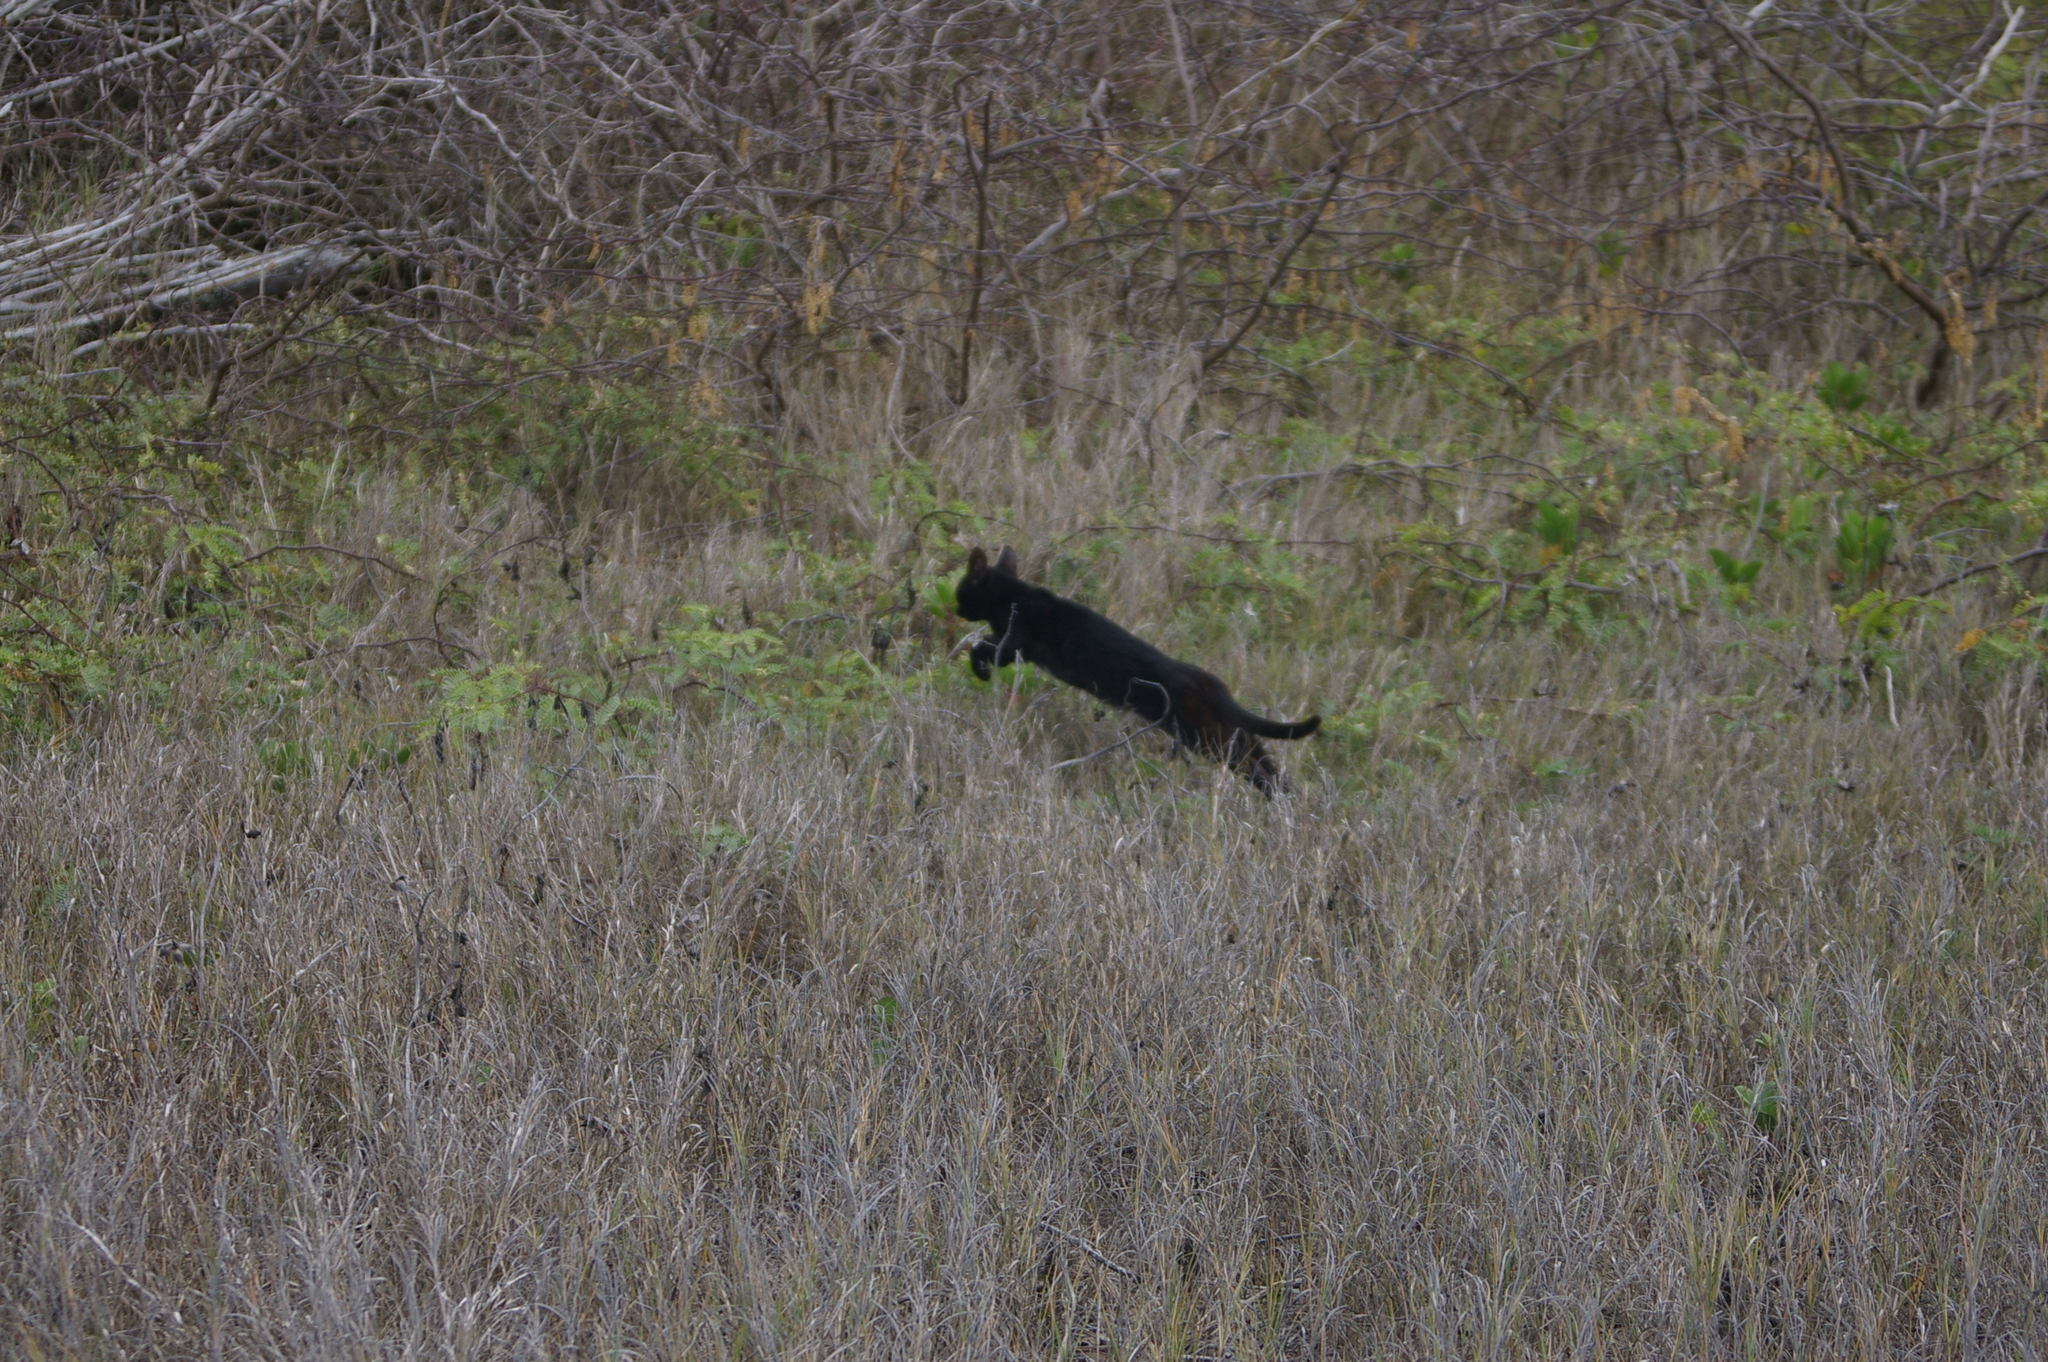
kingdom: Animalia
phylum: Chordata
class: Mammalia
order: Carnivora
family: Felidae
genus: Felis
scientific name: Felis catus
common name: Domestic cat
